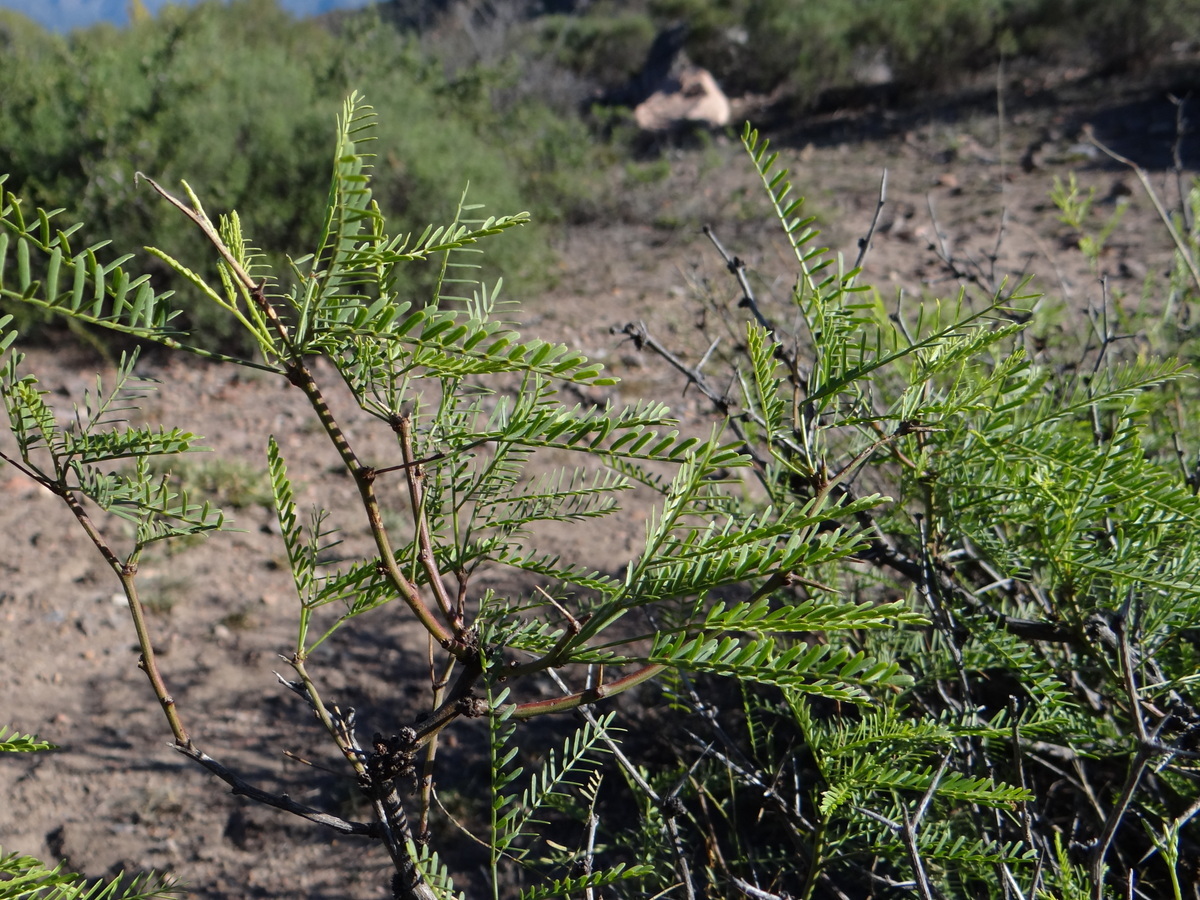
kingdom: Plantae
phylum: Tracheophyta
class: Magnoliopsida
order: Fabales
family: Fabaceae
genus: Prosopis
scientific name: Prosopis flexuosa
